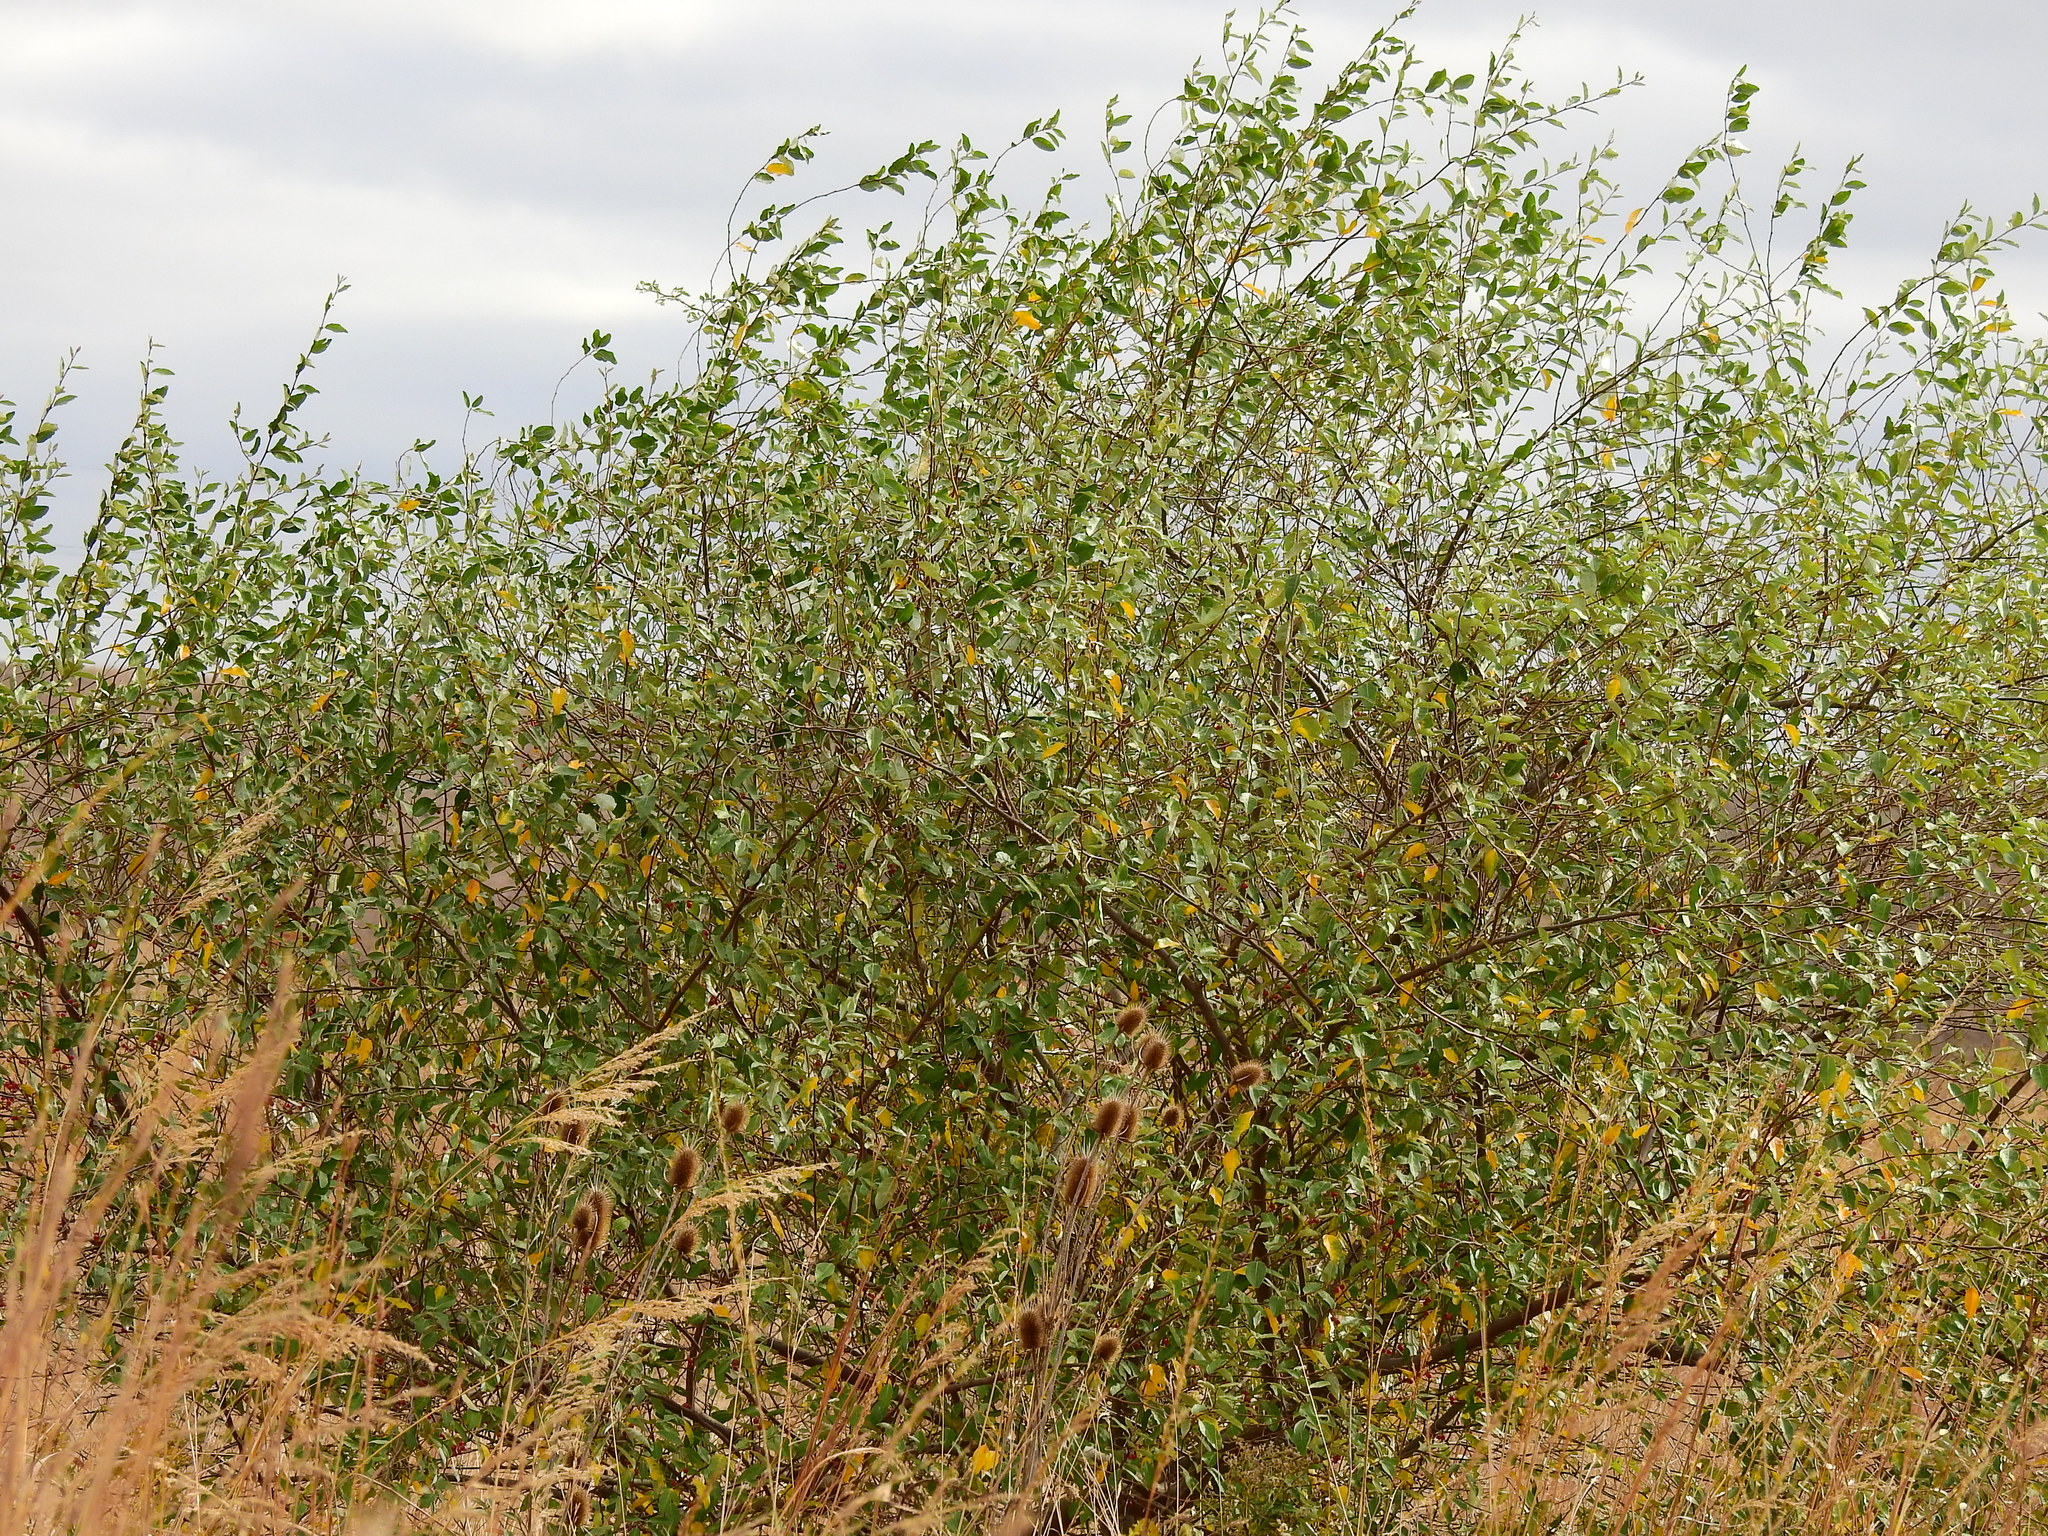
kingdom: Plantae
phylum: Tracheophyta
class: Magnoliopsida
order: Rosales
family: Elaeagnaceae
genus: Elaeagnus
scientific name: Elaeagnus umbellata
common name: Autumn olive
